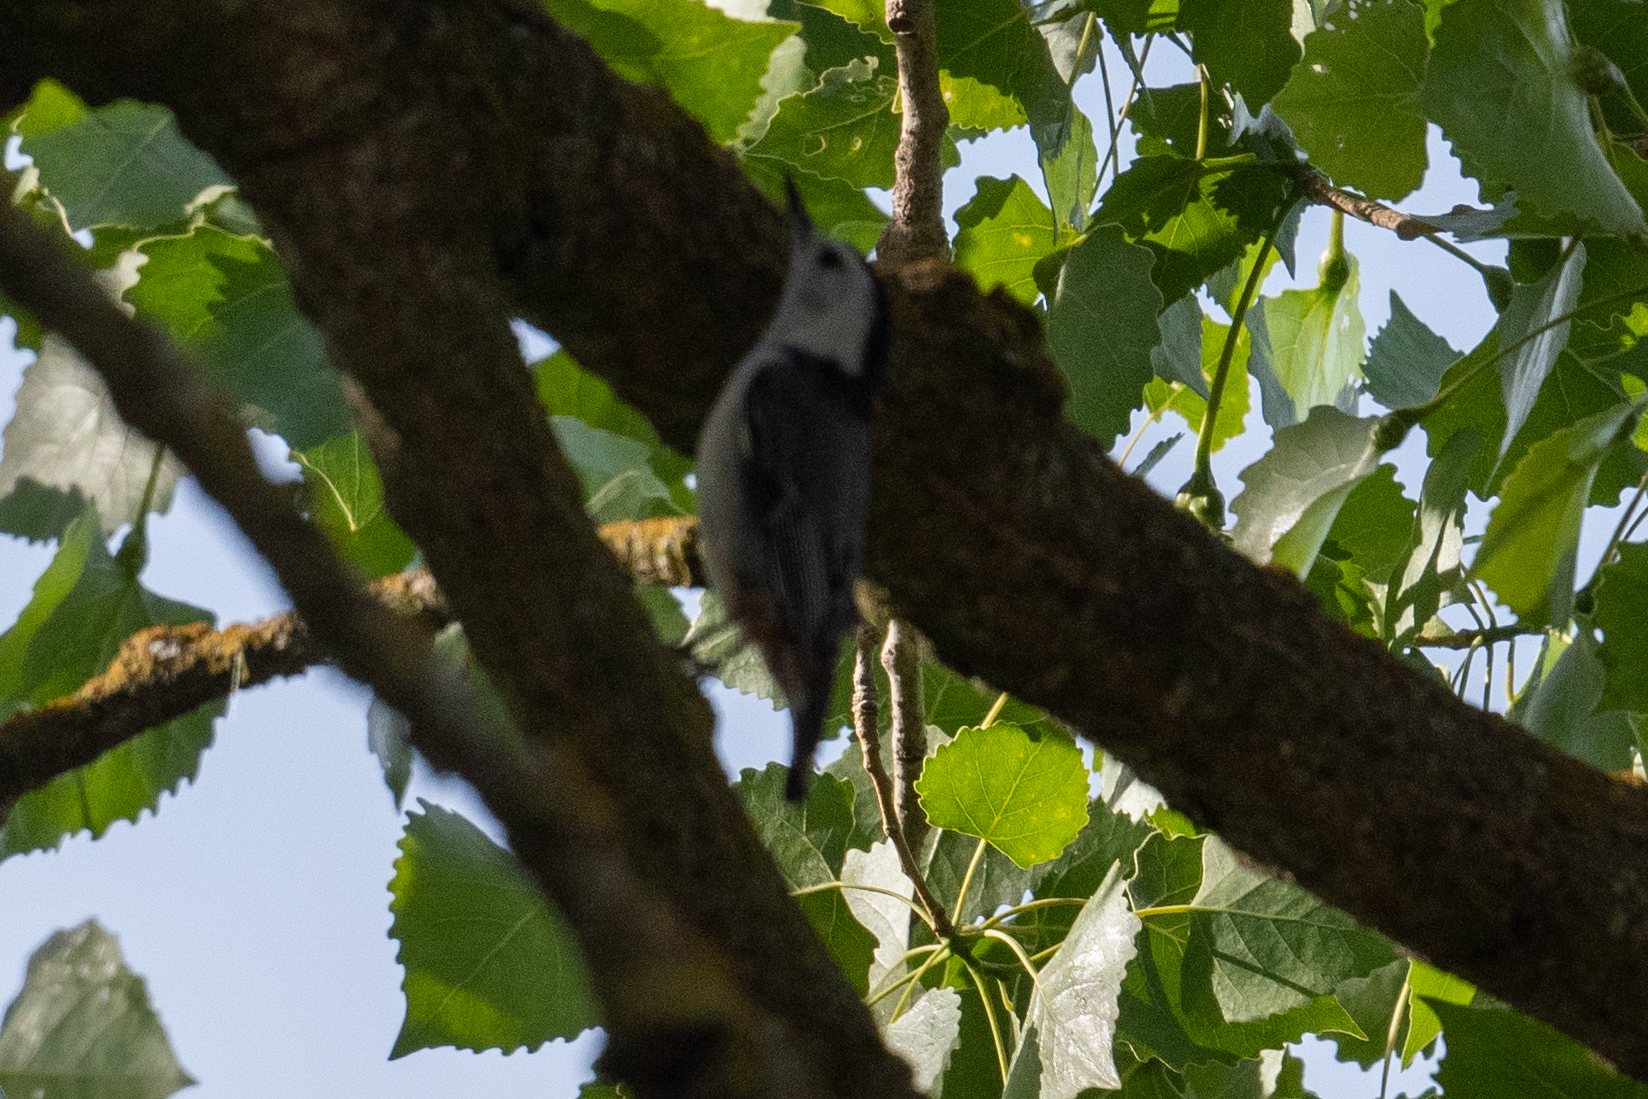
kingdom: Animalia
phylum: Chordata
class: Aves
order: Passeriformes
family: Sittidae
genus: Sitta
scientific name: Sitta carolinensis
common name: White-breasted nuthatch
